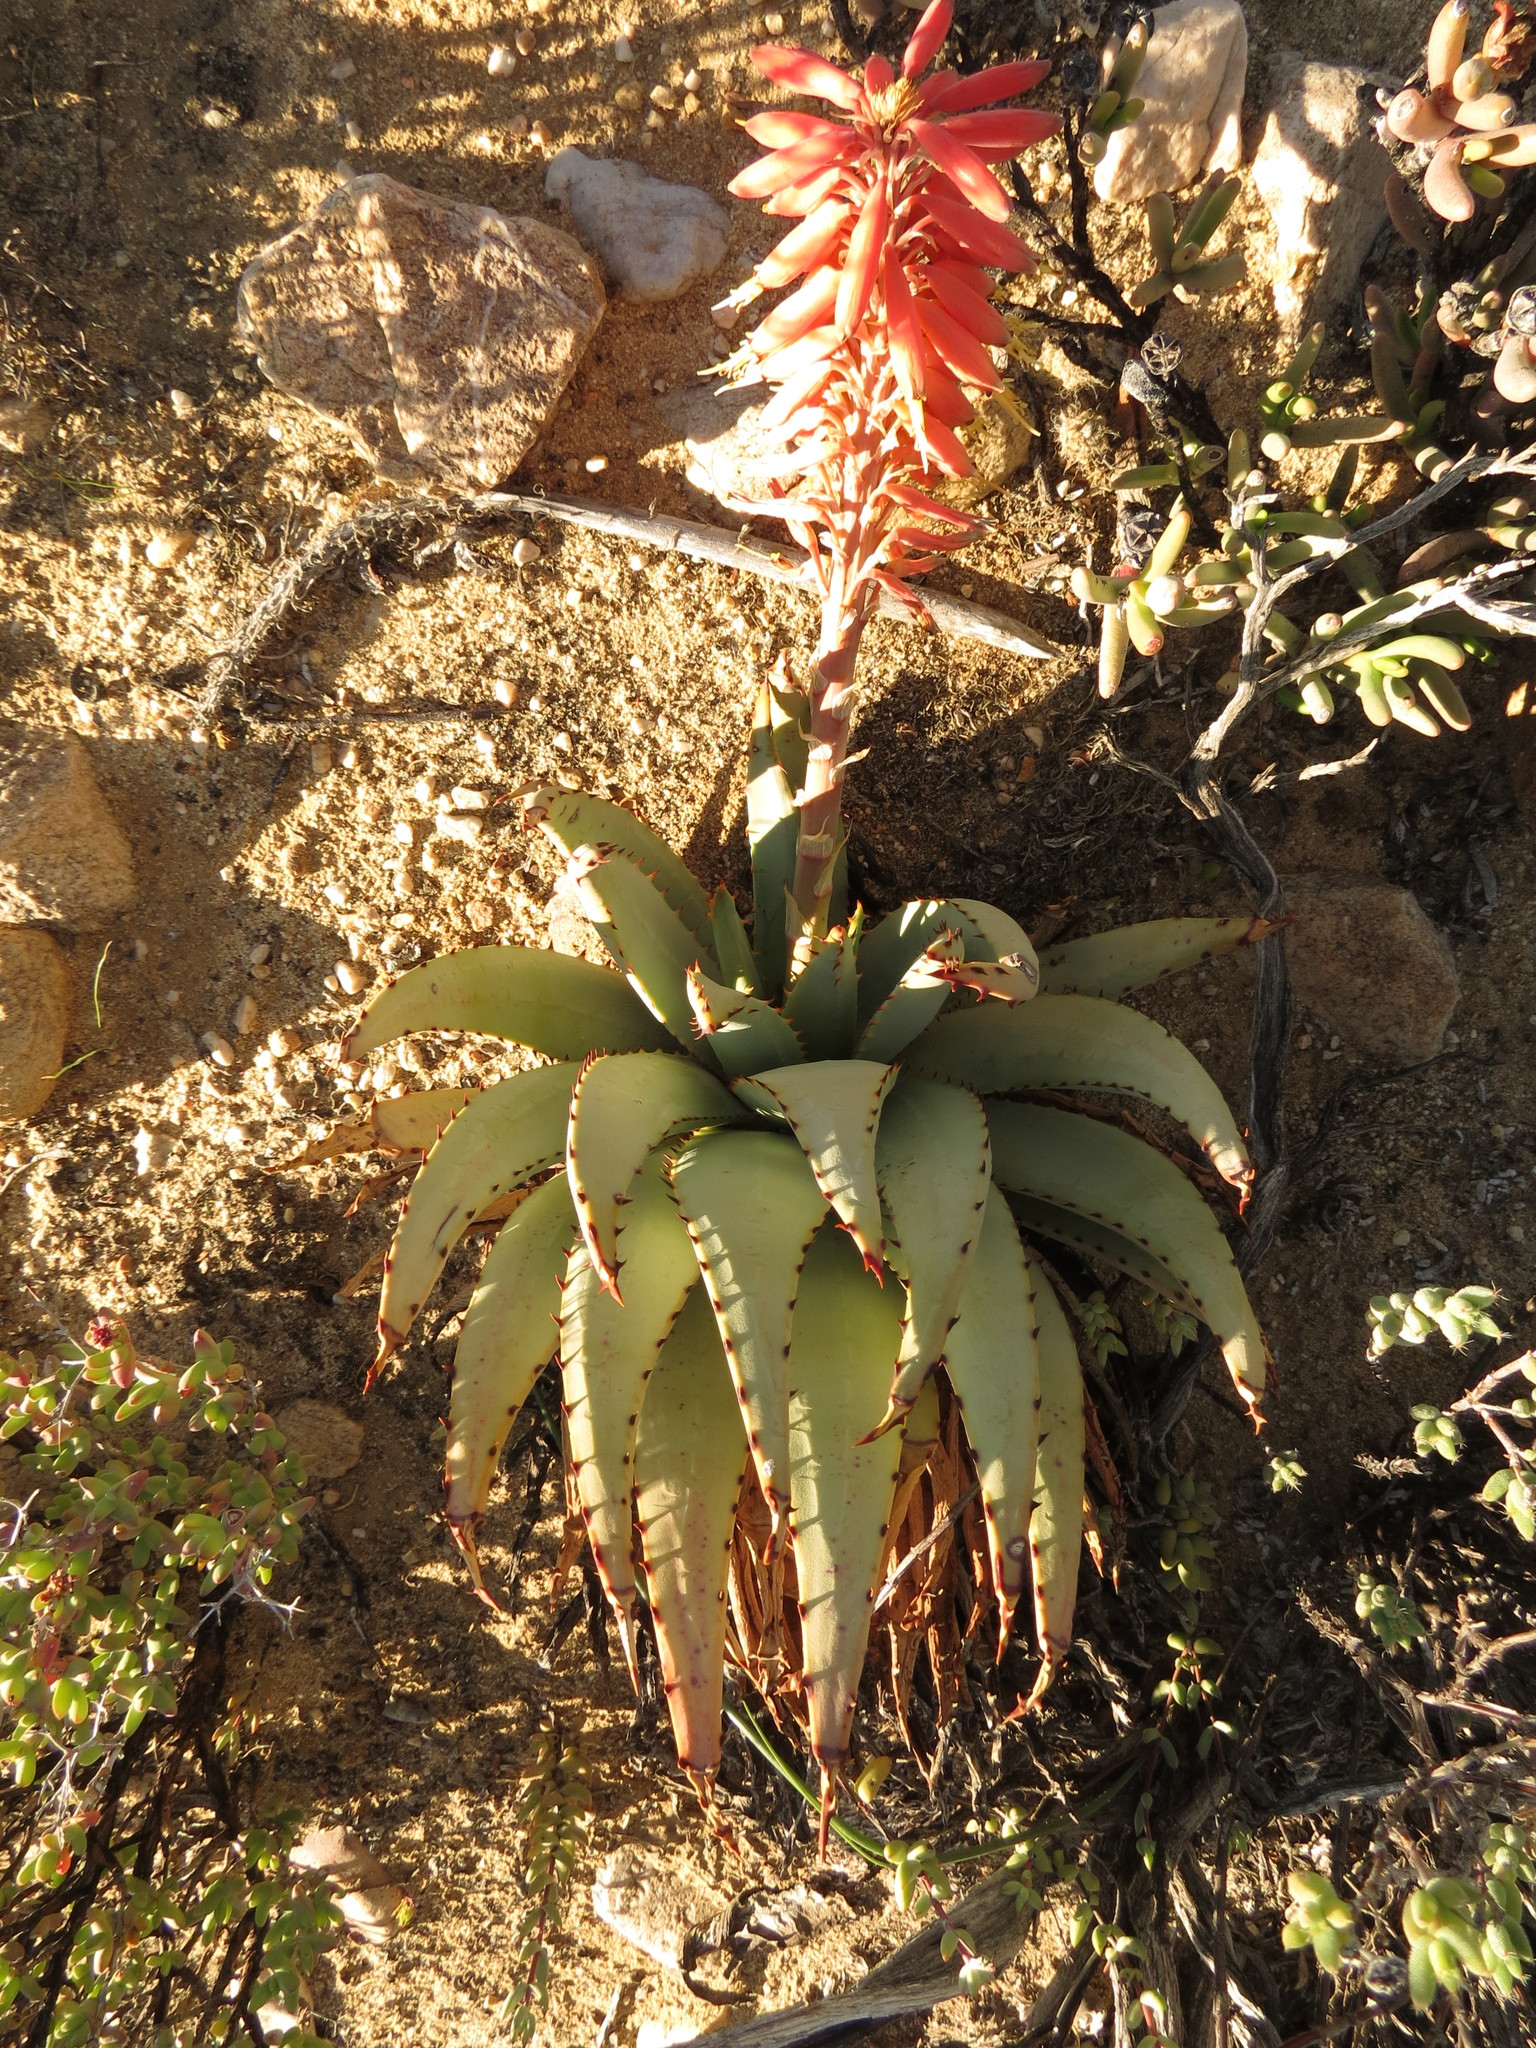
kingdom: Plantae
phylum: Tracheophyta
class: Liliopsida
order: Asparagales
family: Asphodelaceae
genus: Aloe
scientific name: Aloe claviflora
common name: Cannon aloe
